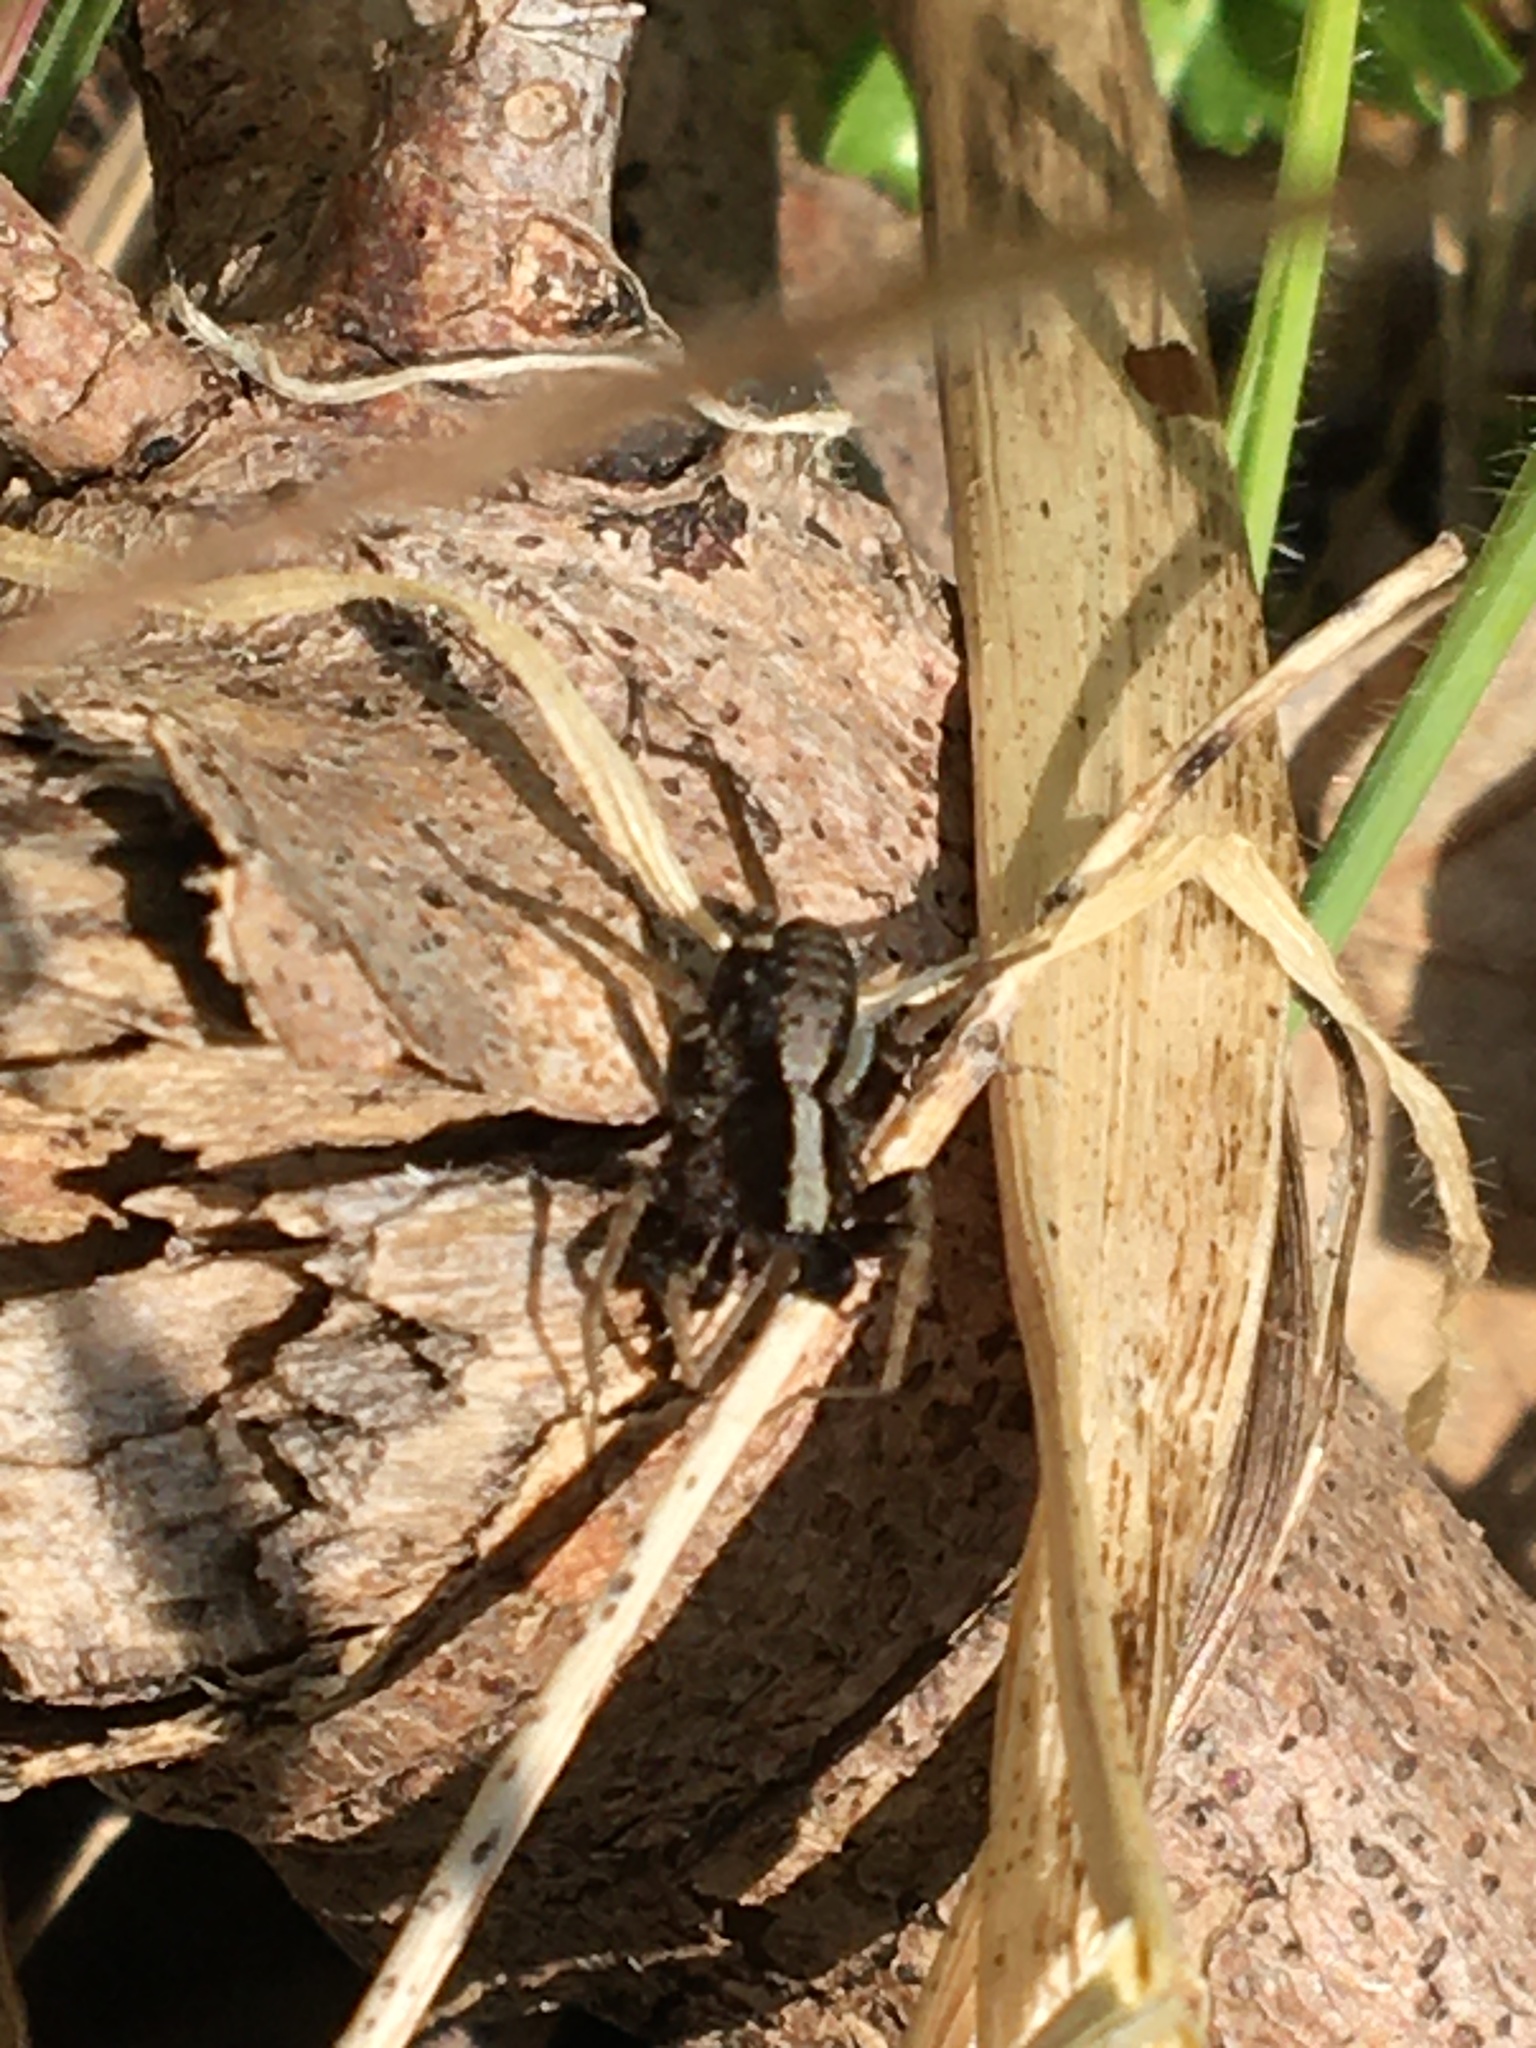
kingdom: Animalia
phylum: Arthropoda
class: Arachnida
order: Araneae
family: Lycosidae
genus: Pardosa
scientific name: Pardosa
